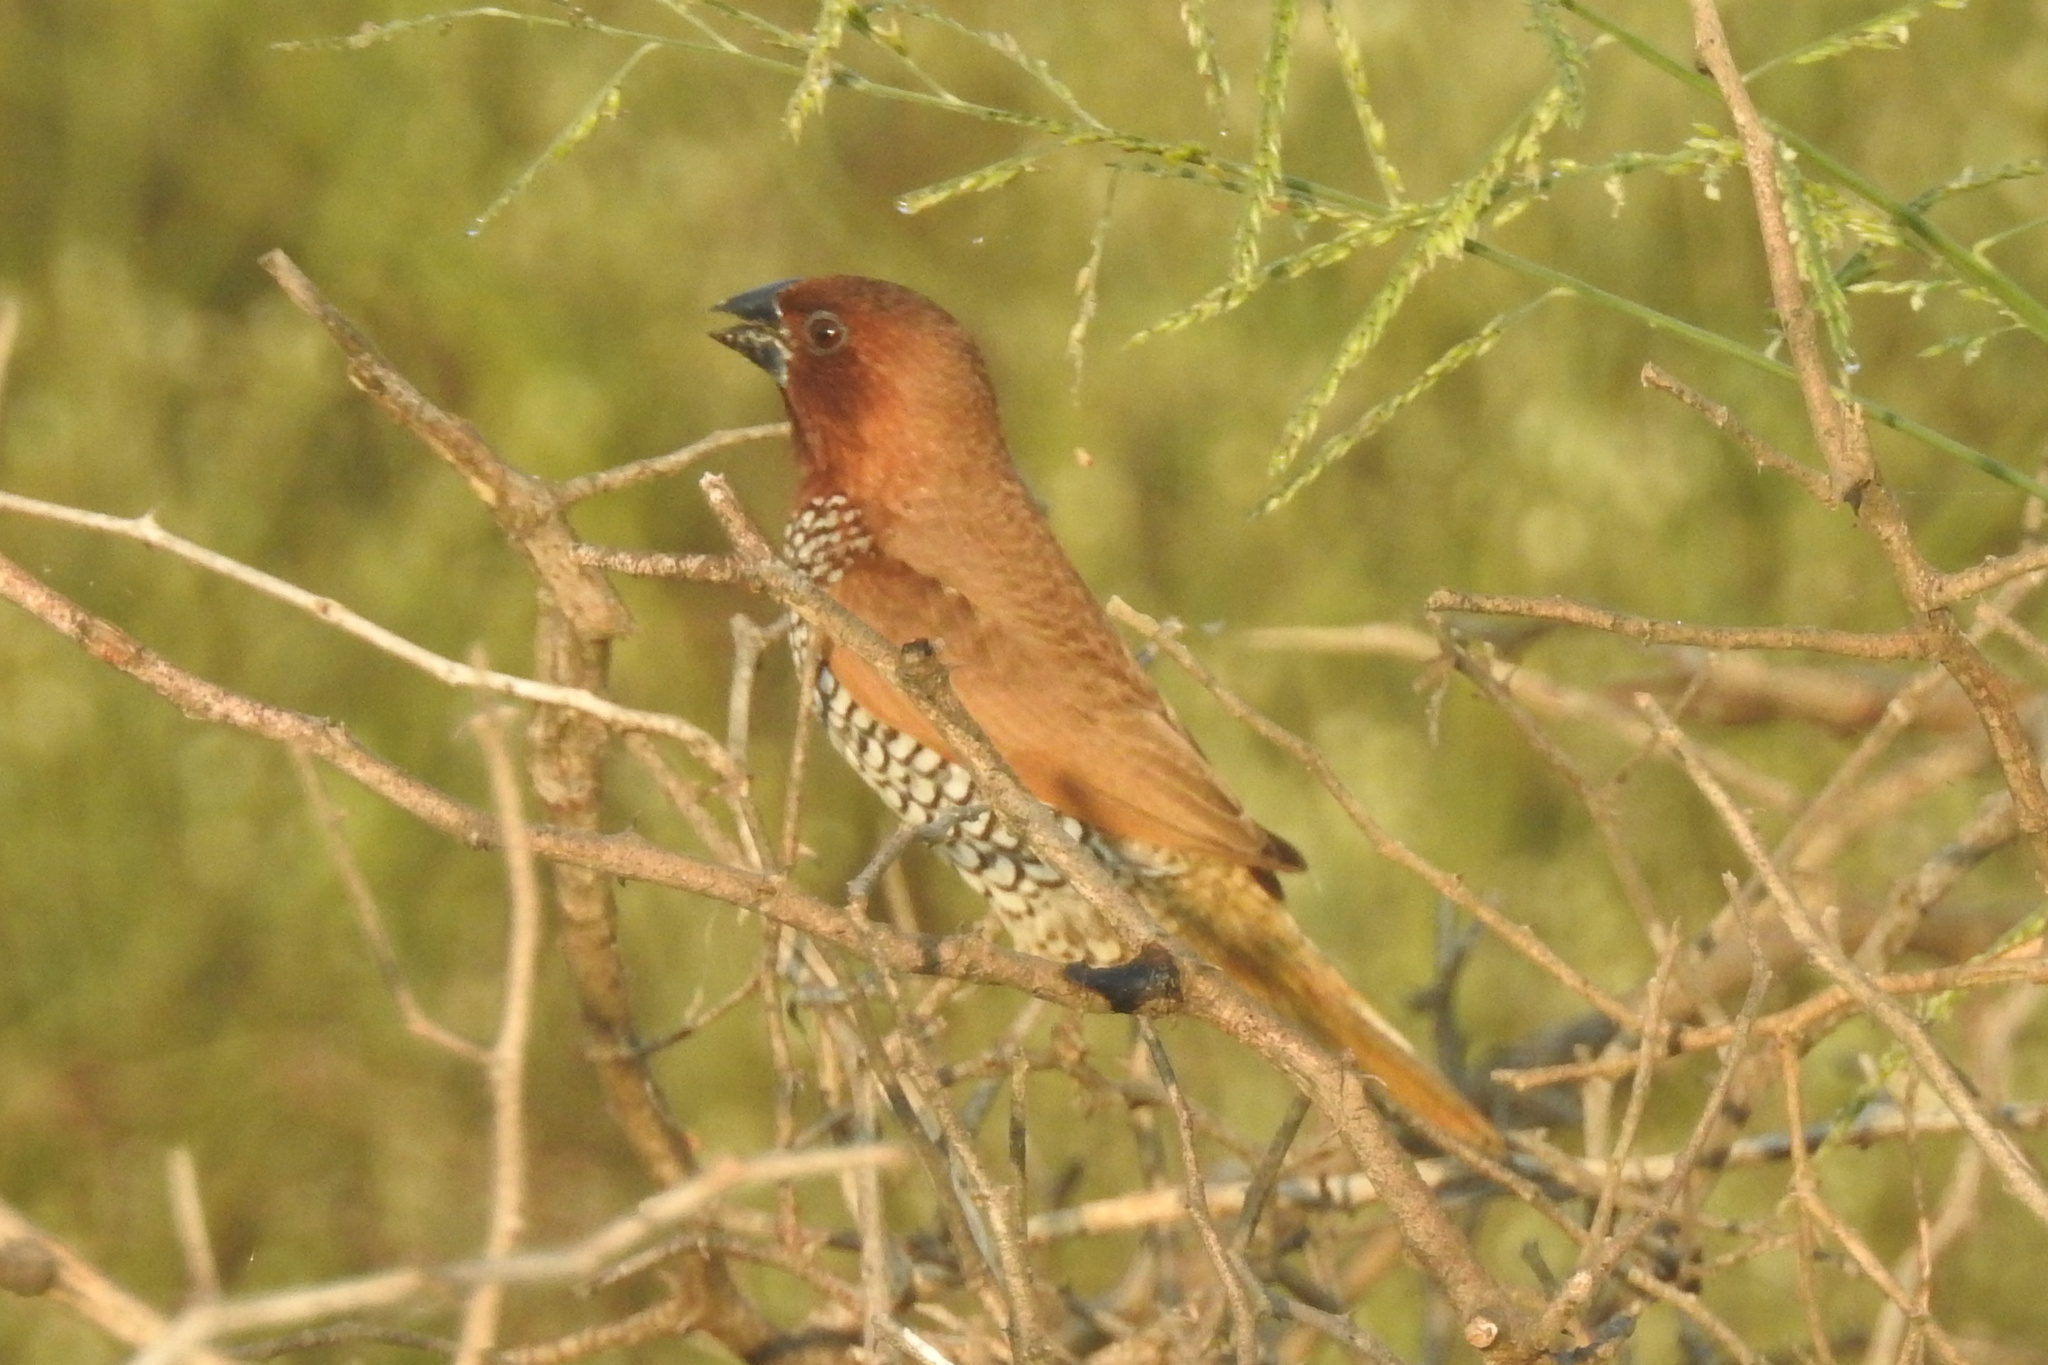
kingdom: Animalia
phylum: Chordata
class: Aves
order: Passeriformes
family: Estrildidae
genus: Lonchura
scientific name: Lonchura punctulata
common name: Scaly-breasted munia
